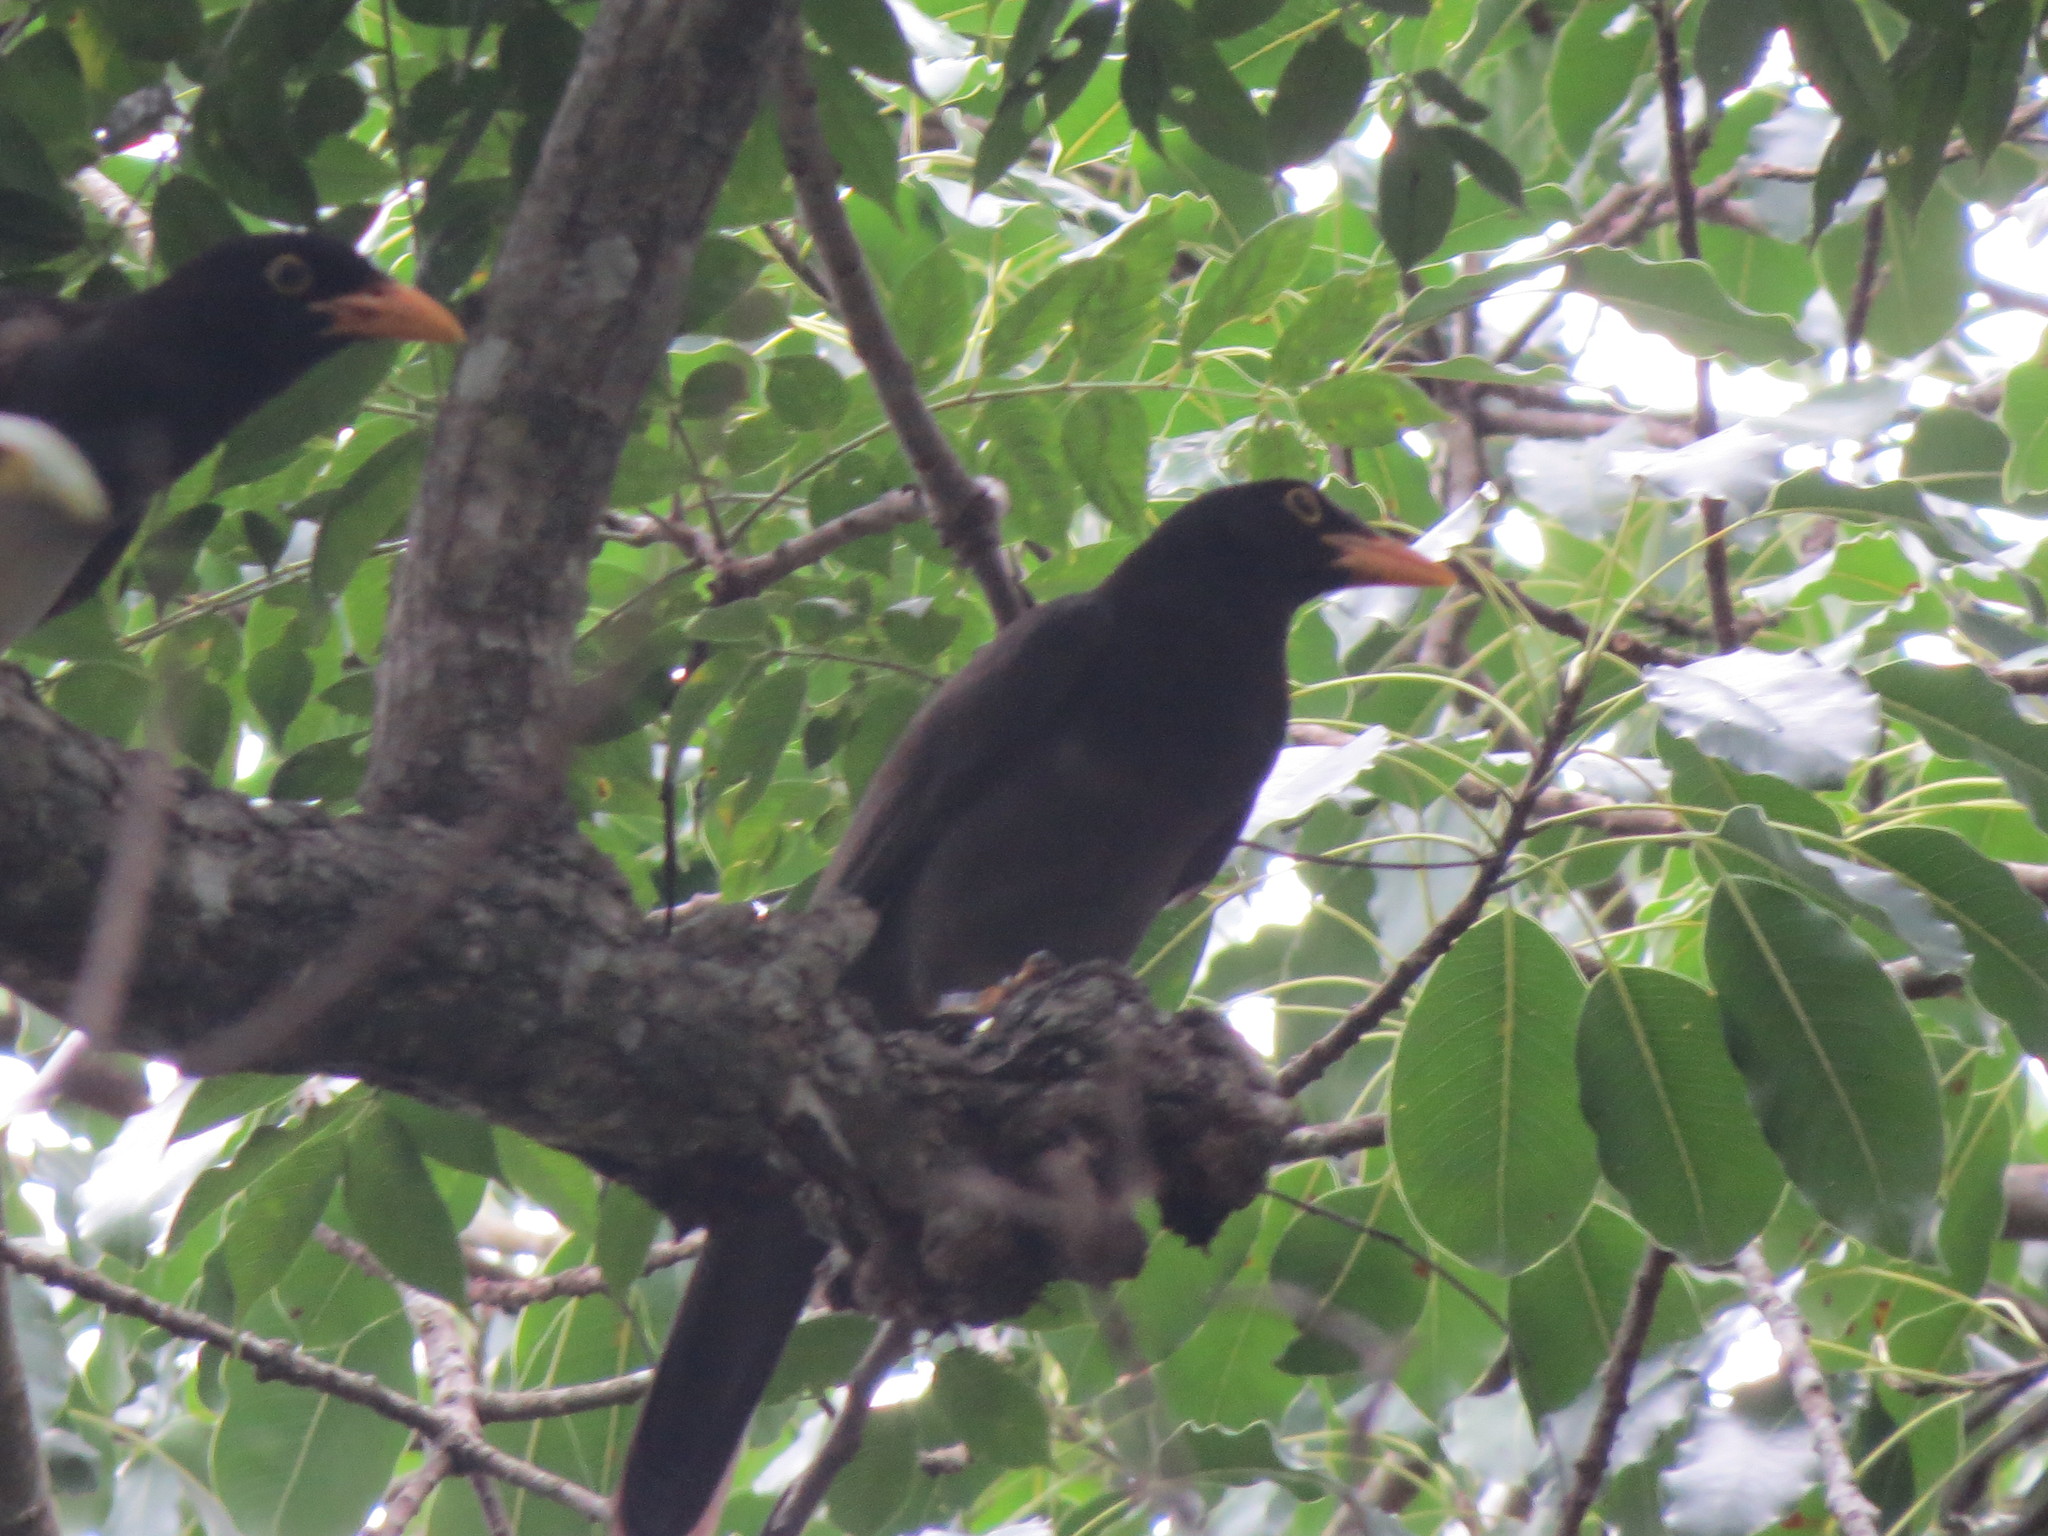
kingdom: Animalia
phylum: Chordata
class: Aves
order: Passeriformes
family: Corvidae
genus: Psilorhinus
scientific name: Psilorhinus morio
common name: Brown jay
